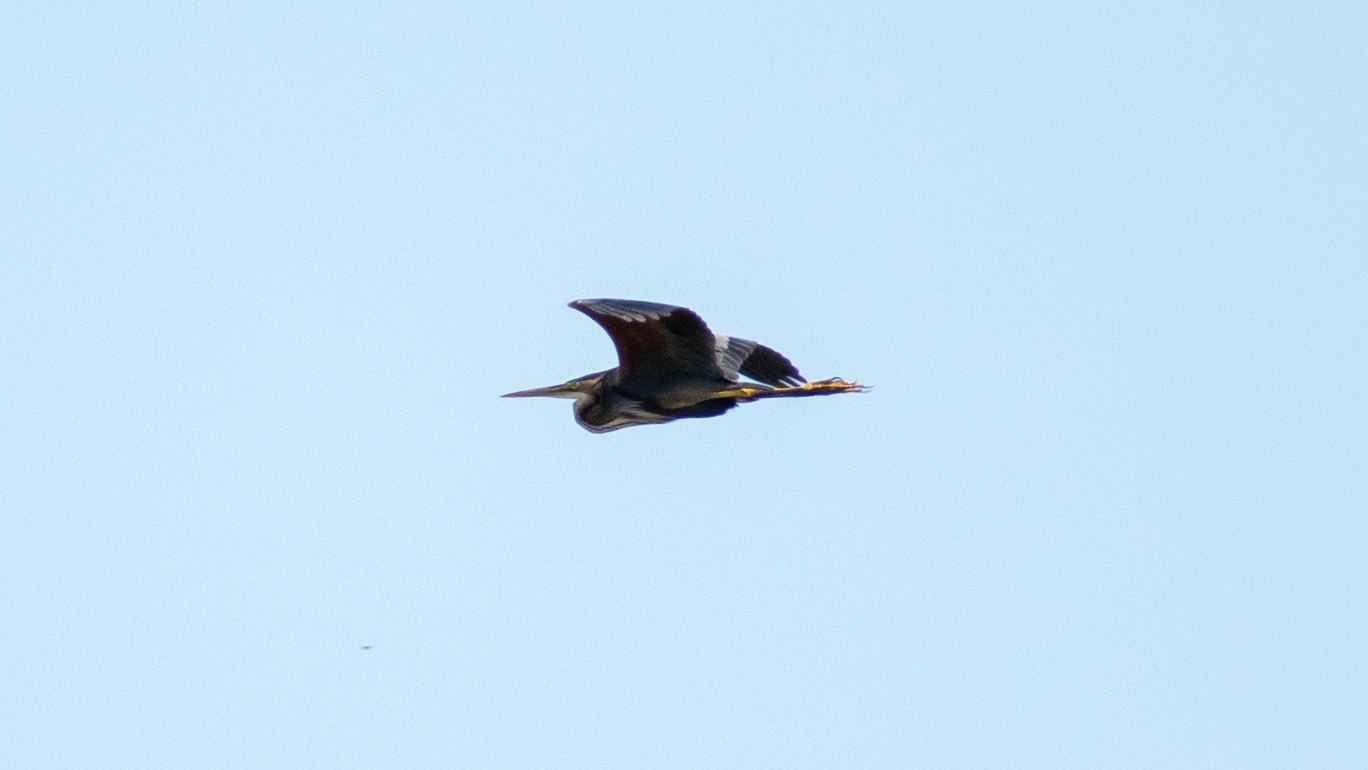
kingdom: Animalia
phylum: Chordata
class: Aves
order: Pelecaniformes
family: Ardeidae
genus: Ardea
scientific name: Ardea purpurea
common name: Purple heron
